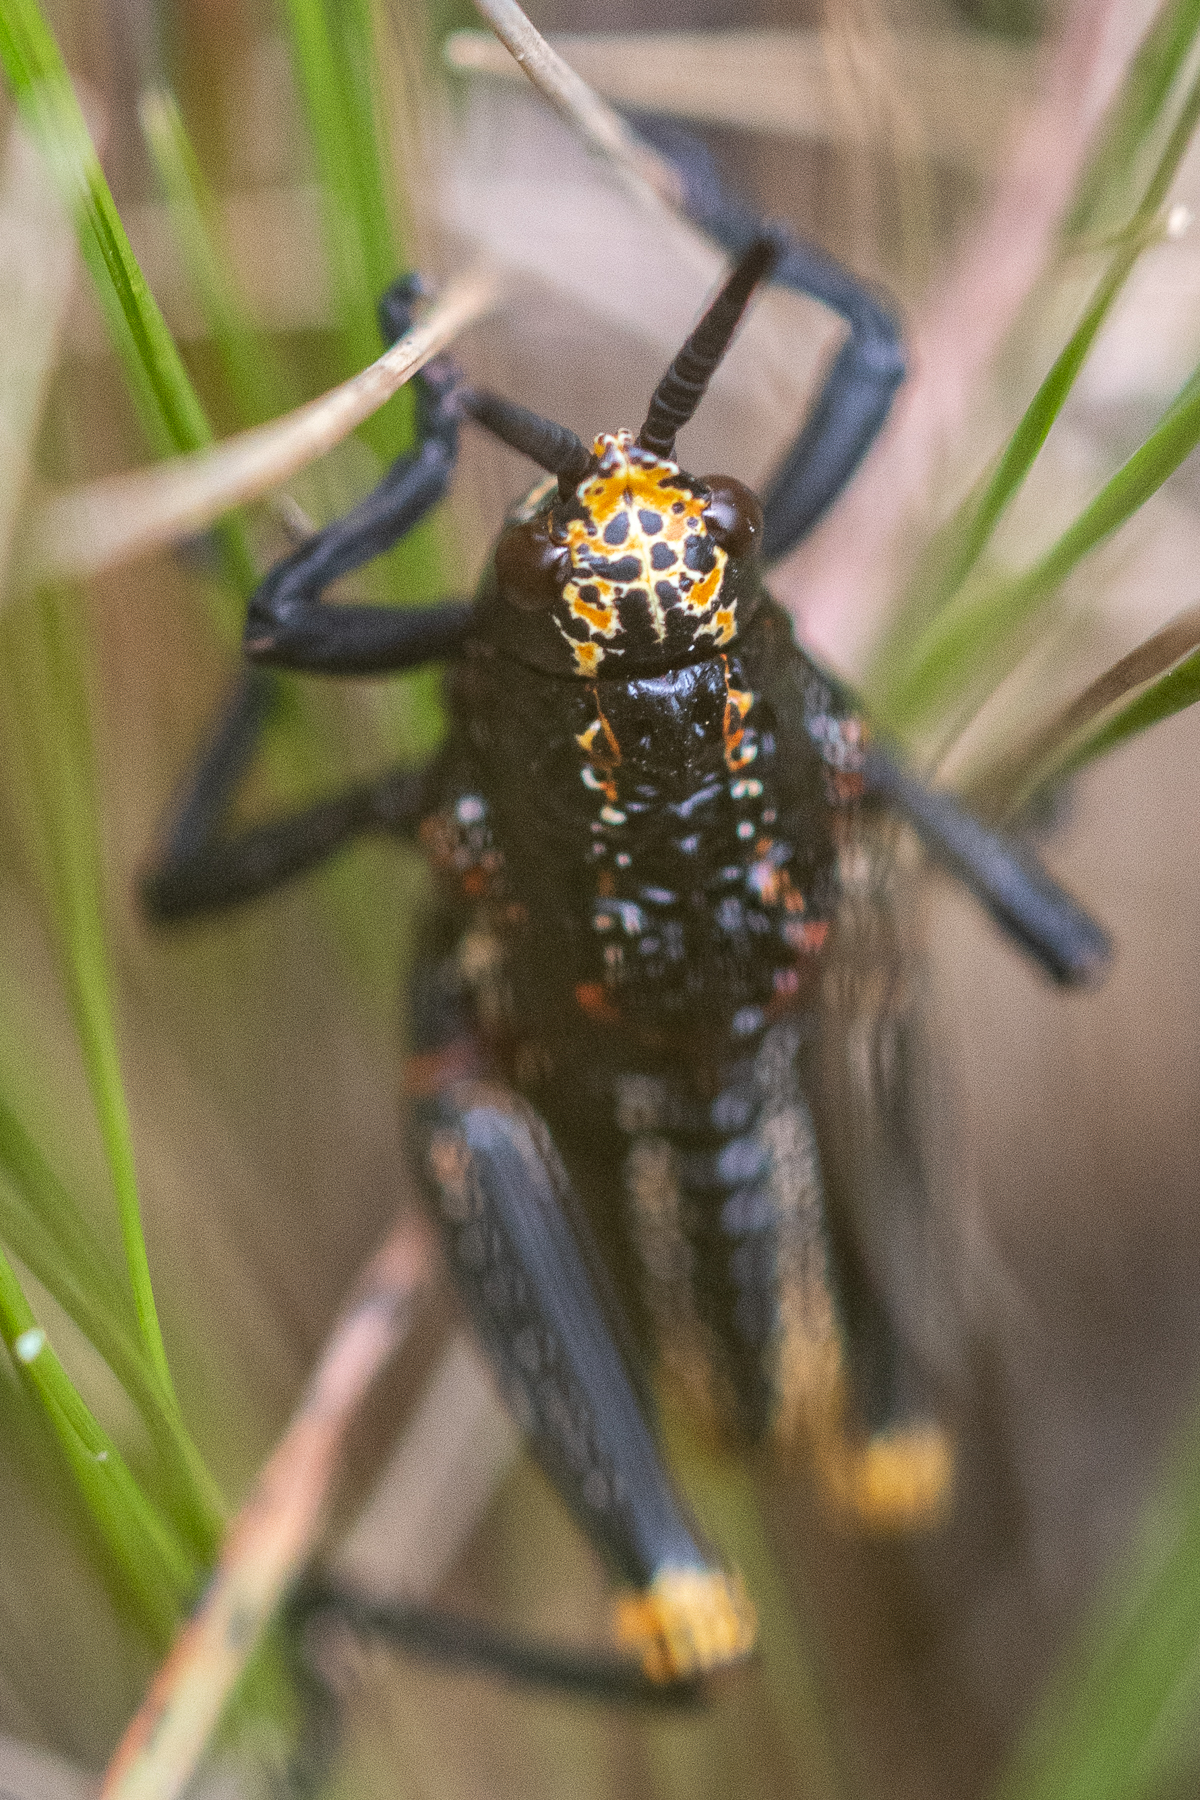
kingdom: Animalia
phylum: Arthropoda
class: Insecta
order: Orthoptera
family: Pyrgomorphidae
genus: Dictyophorus
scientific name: Dictyophorus spumans
